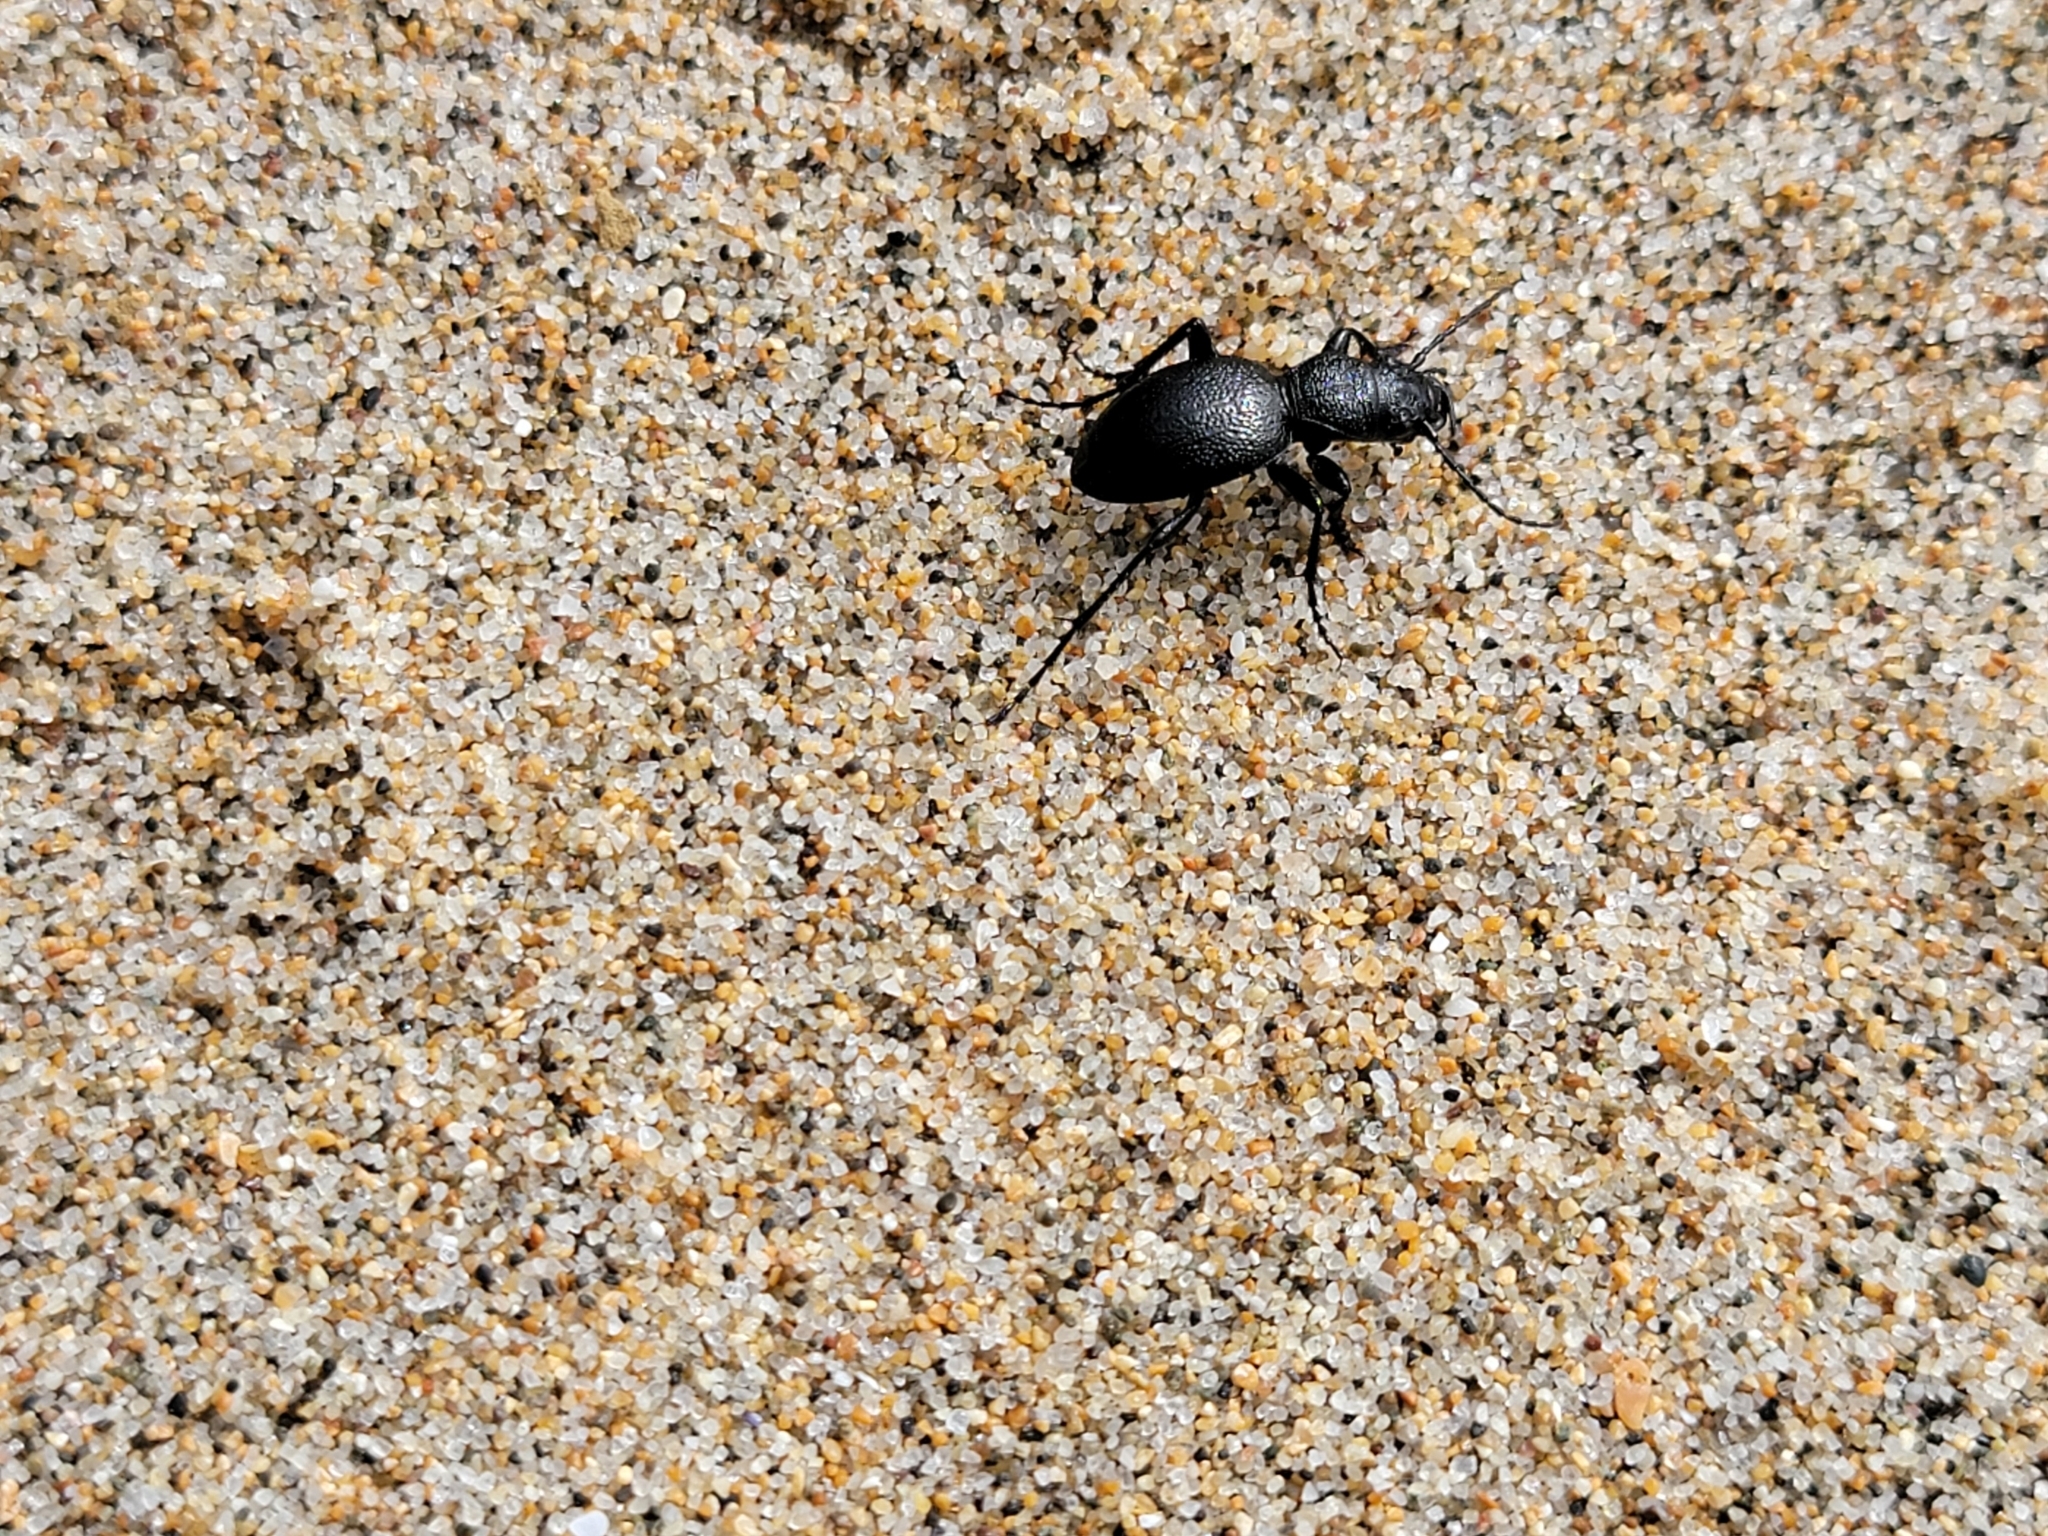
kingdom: Animalia
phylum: Arthropoda
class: Insecta
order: Coleoptera
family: Carabidae
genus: Omus
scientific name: Omus californicus
